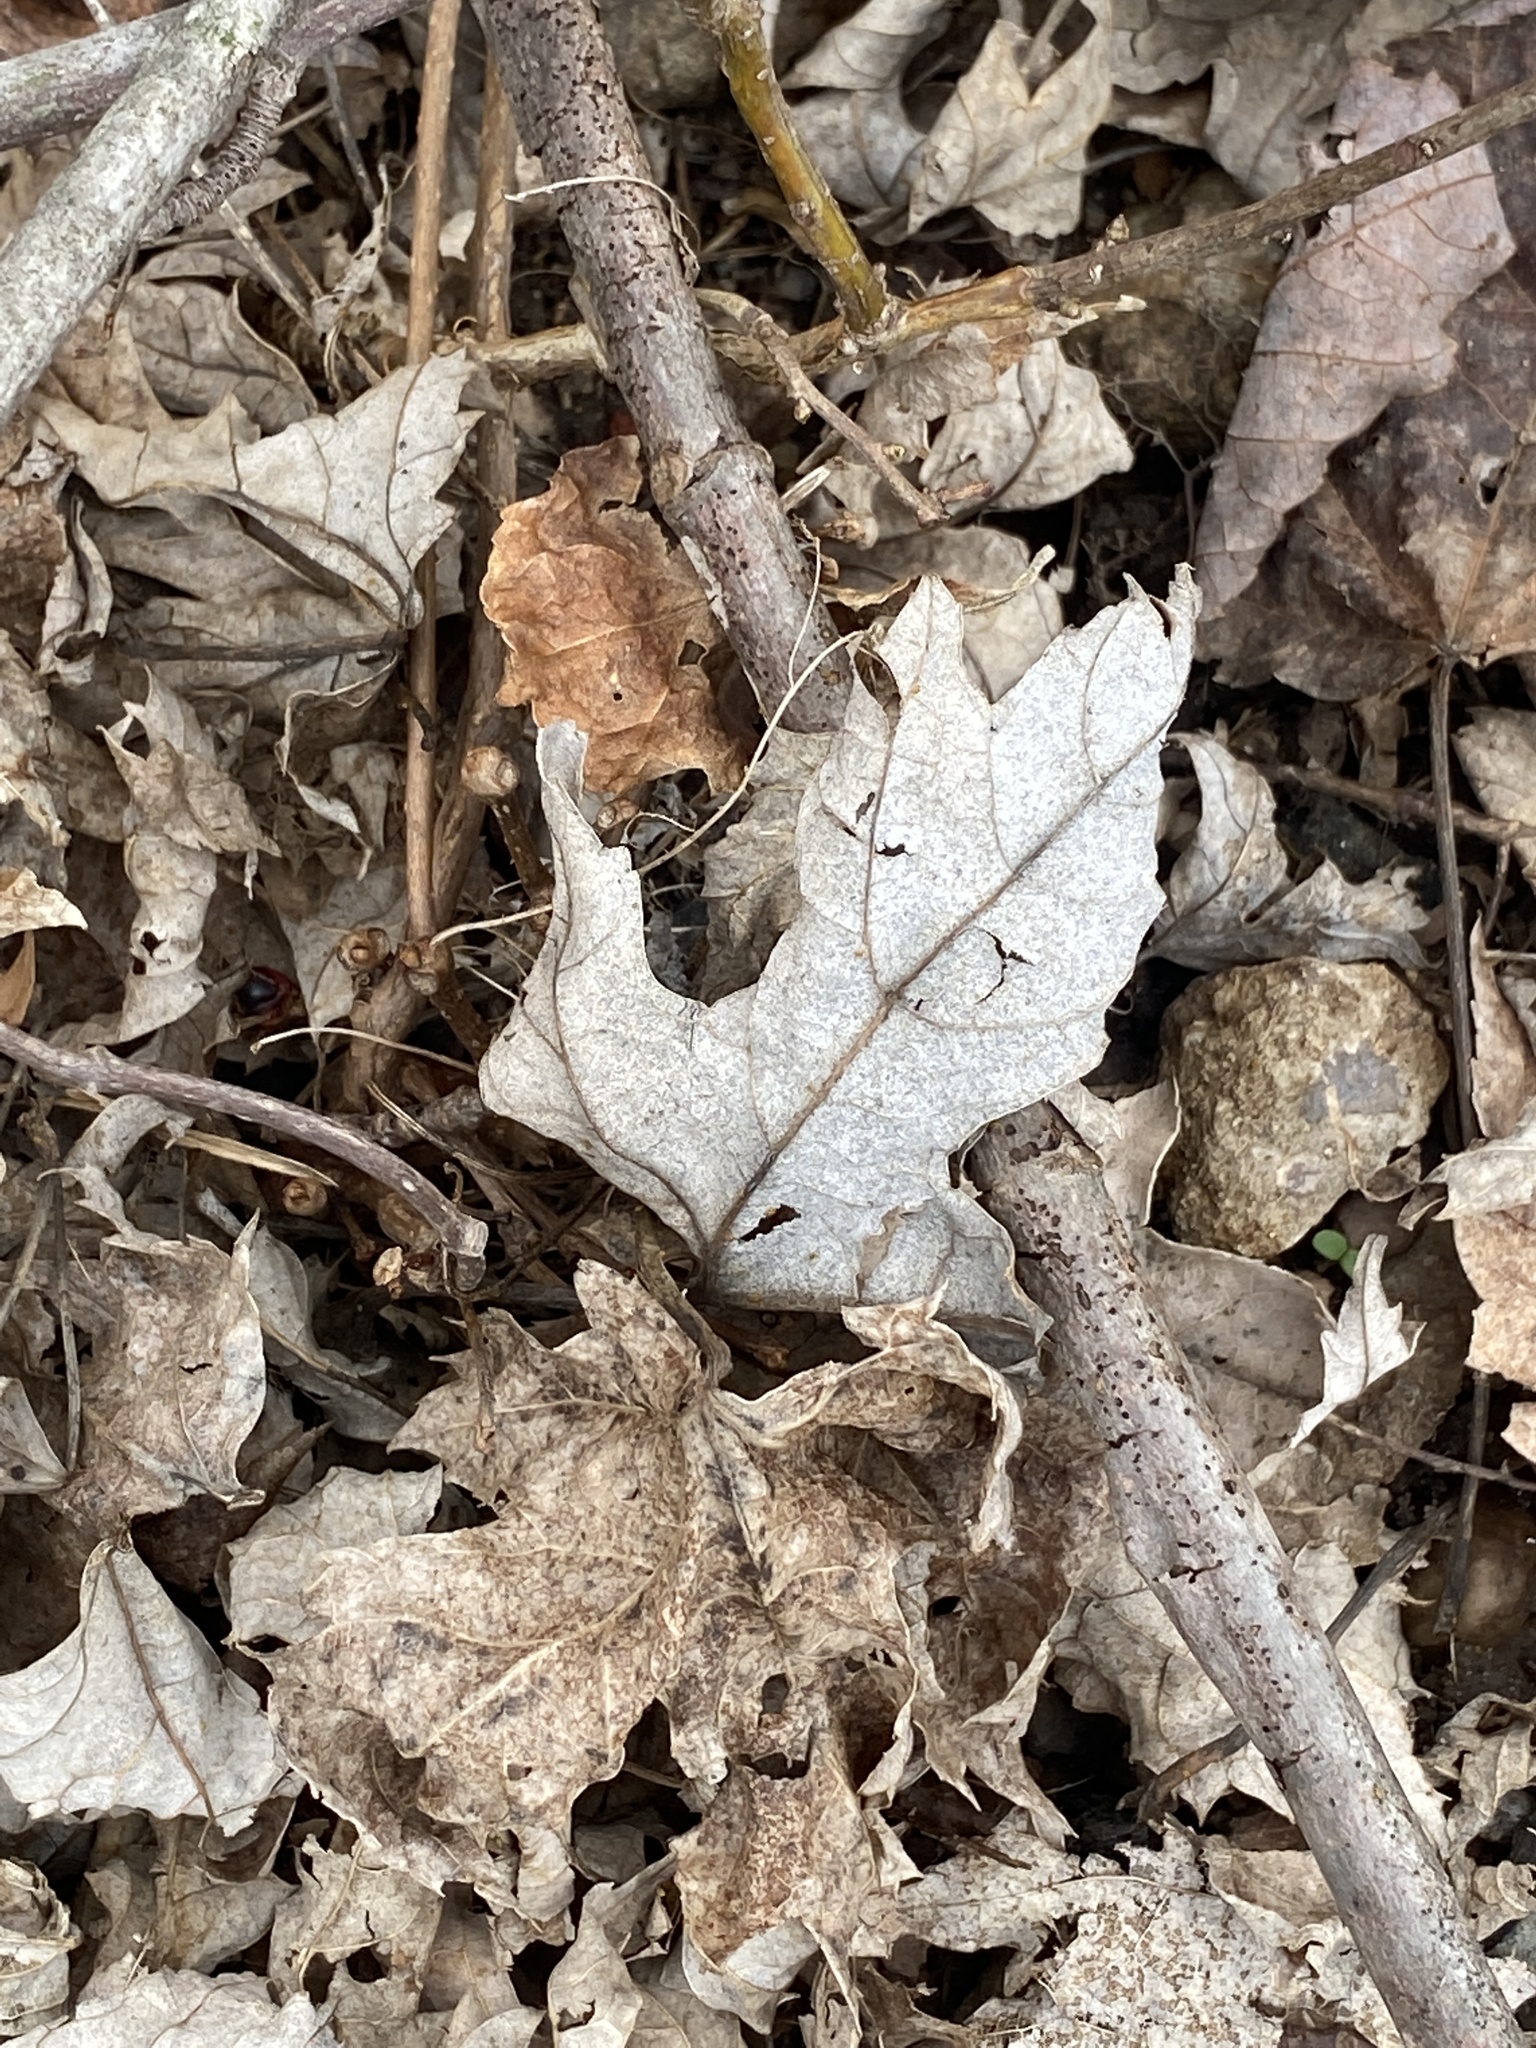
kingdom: Plantae
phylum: Tracheophyta
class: Magnoliopsida
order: Sapindales
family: Sapindaceae
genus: Acer
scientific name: Acer saccharinum
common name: Silver maple
